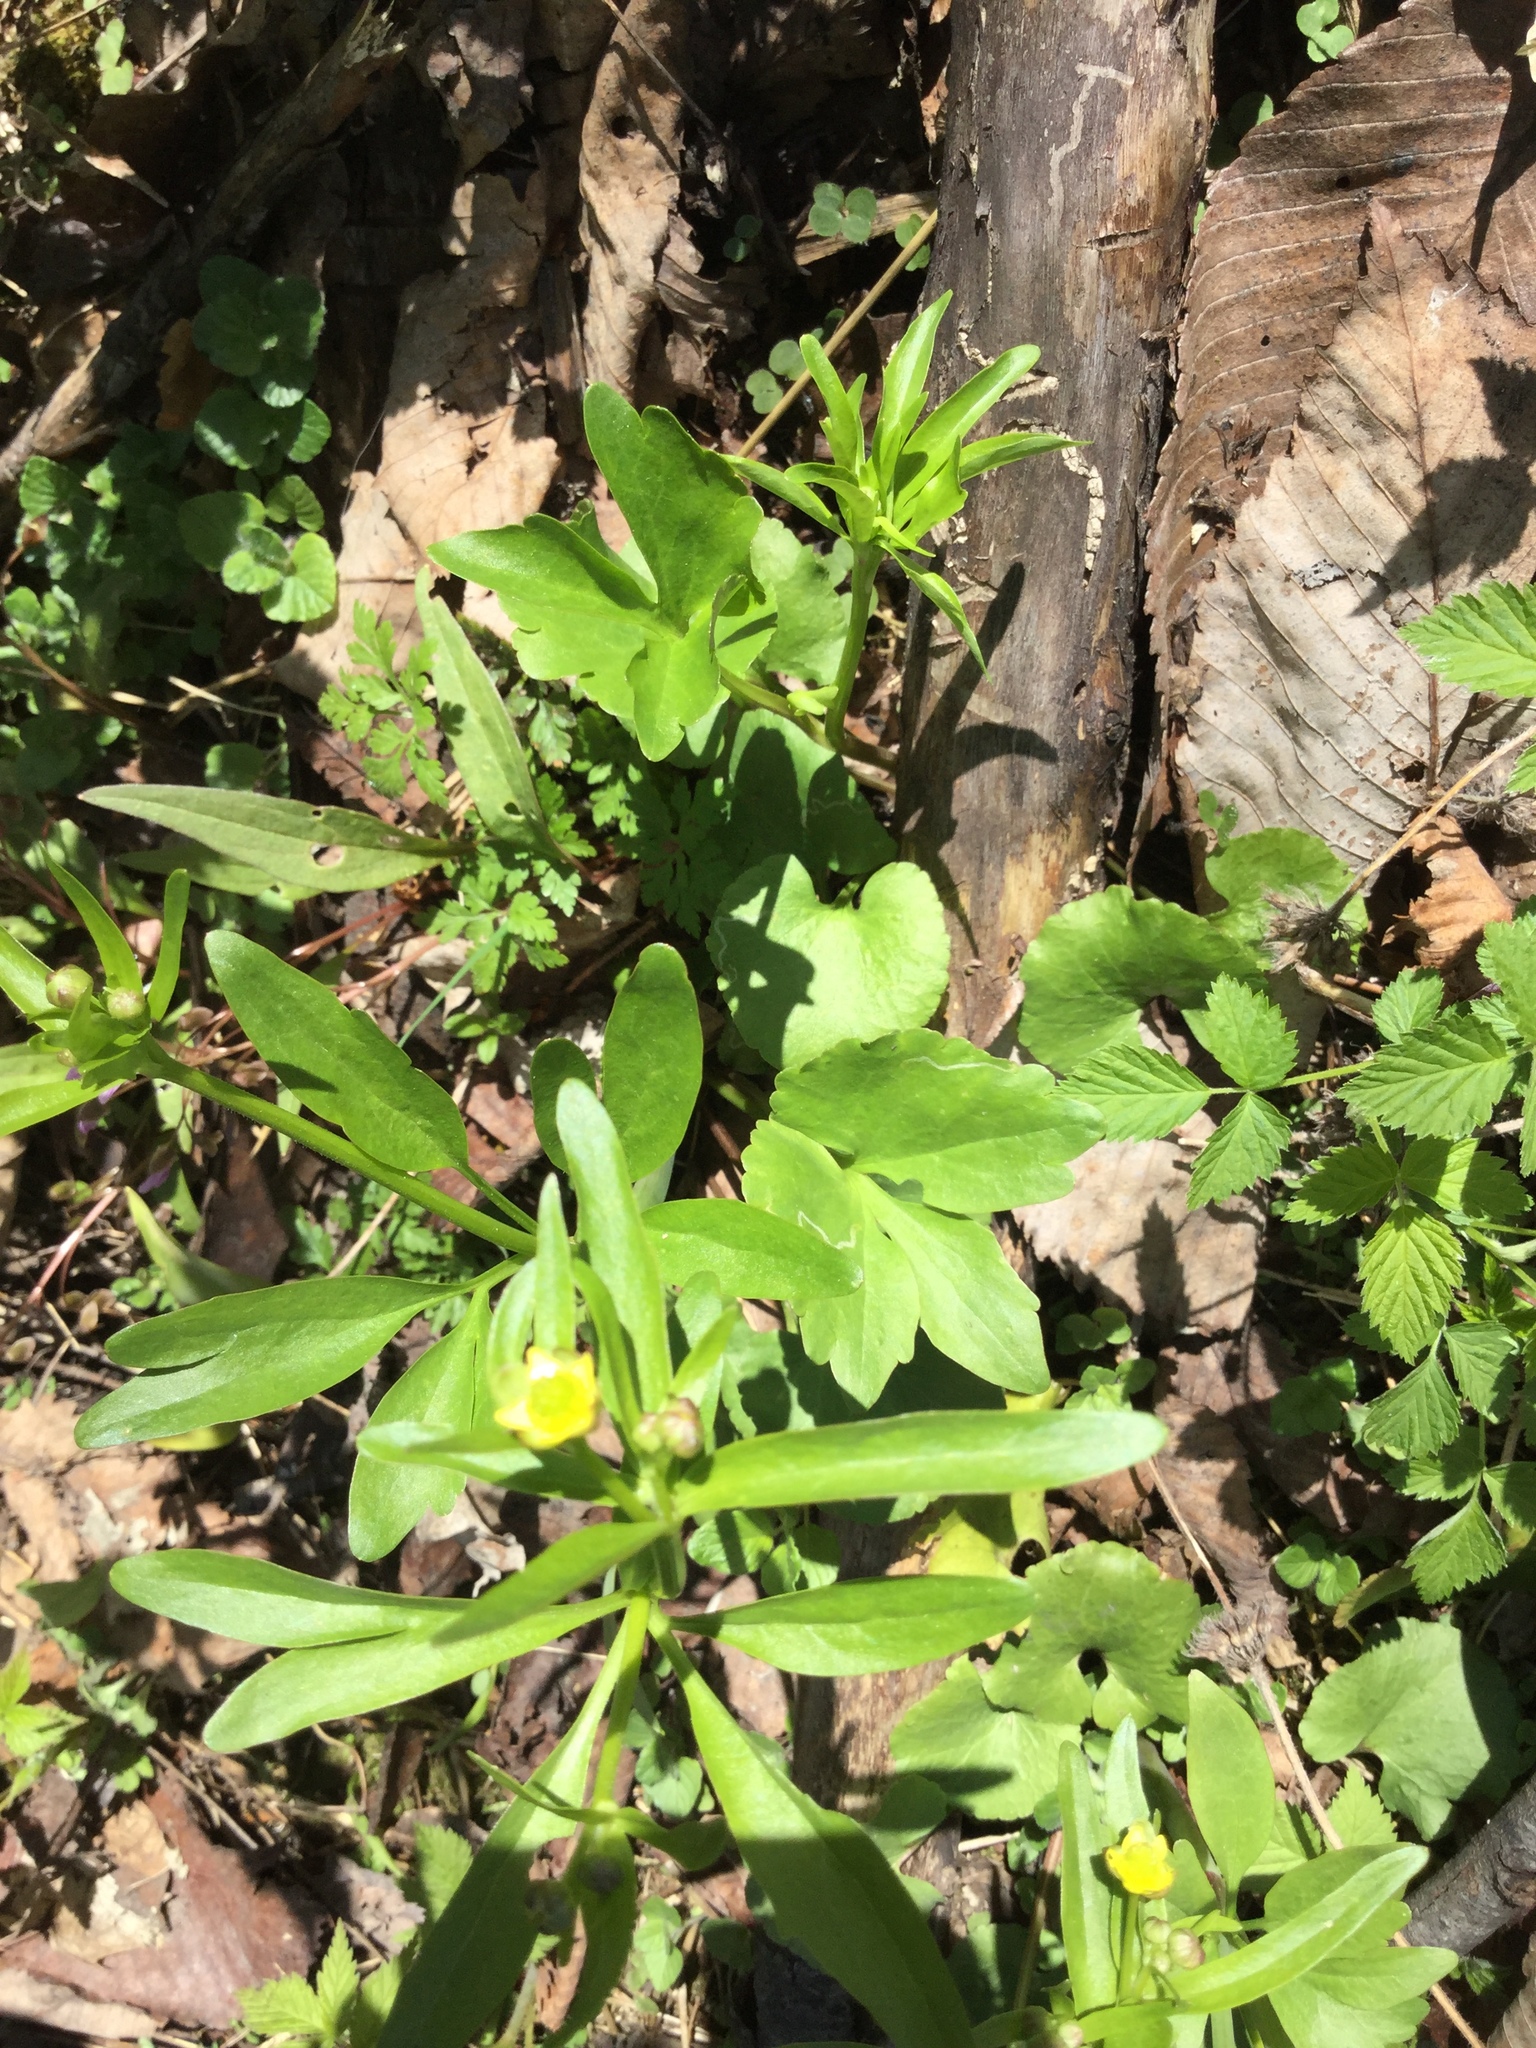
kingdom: Plantae
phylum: Tracheophyta
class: Magnoliopsida
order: Ranunculales
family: Ranunculaceae
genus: Ranunculus
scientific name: Ranunculus abortivus
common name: Early wood buttercup
